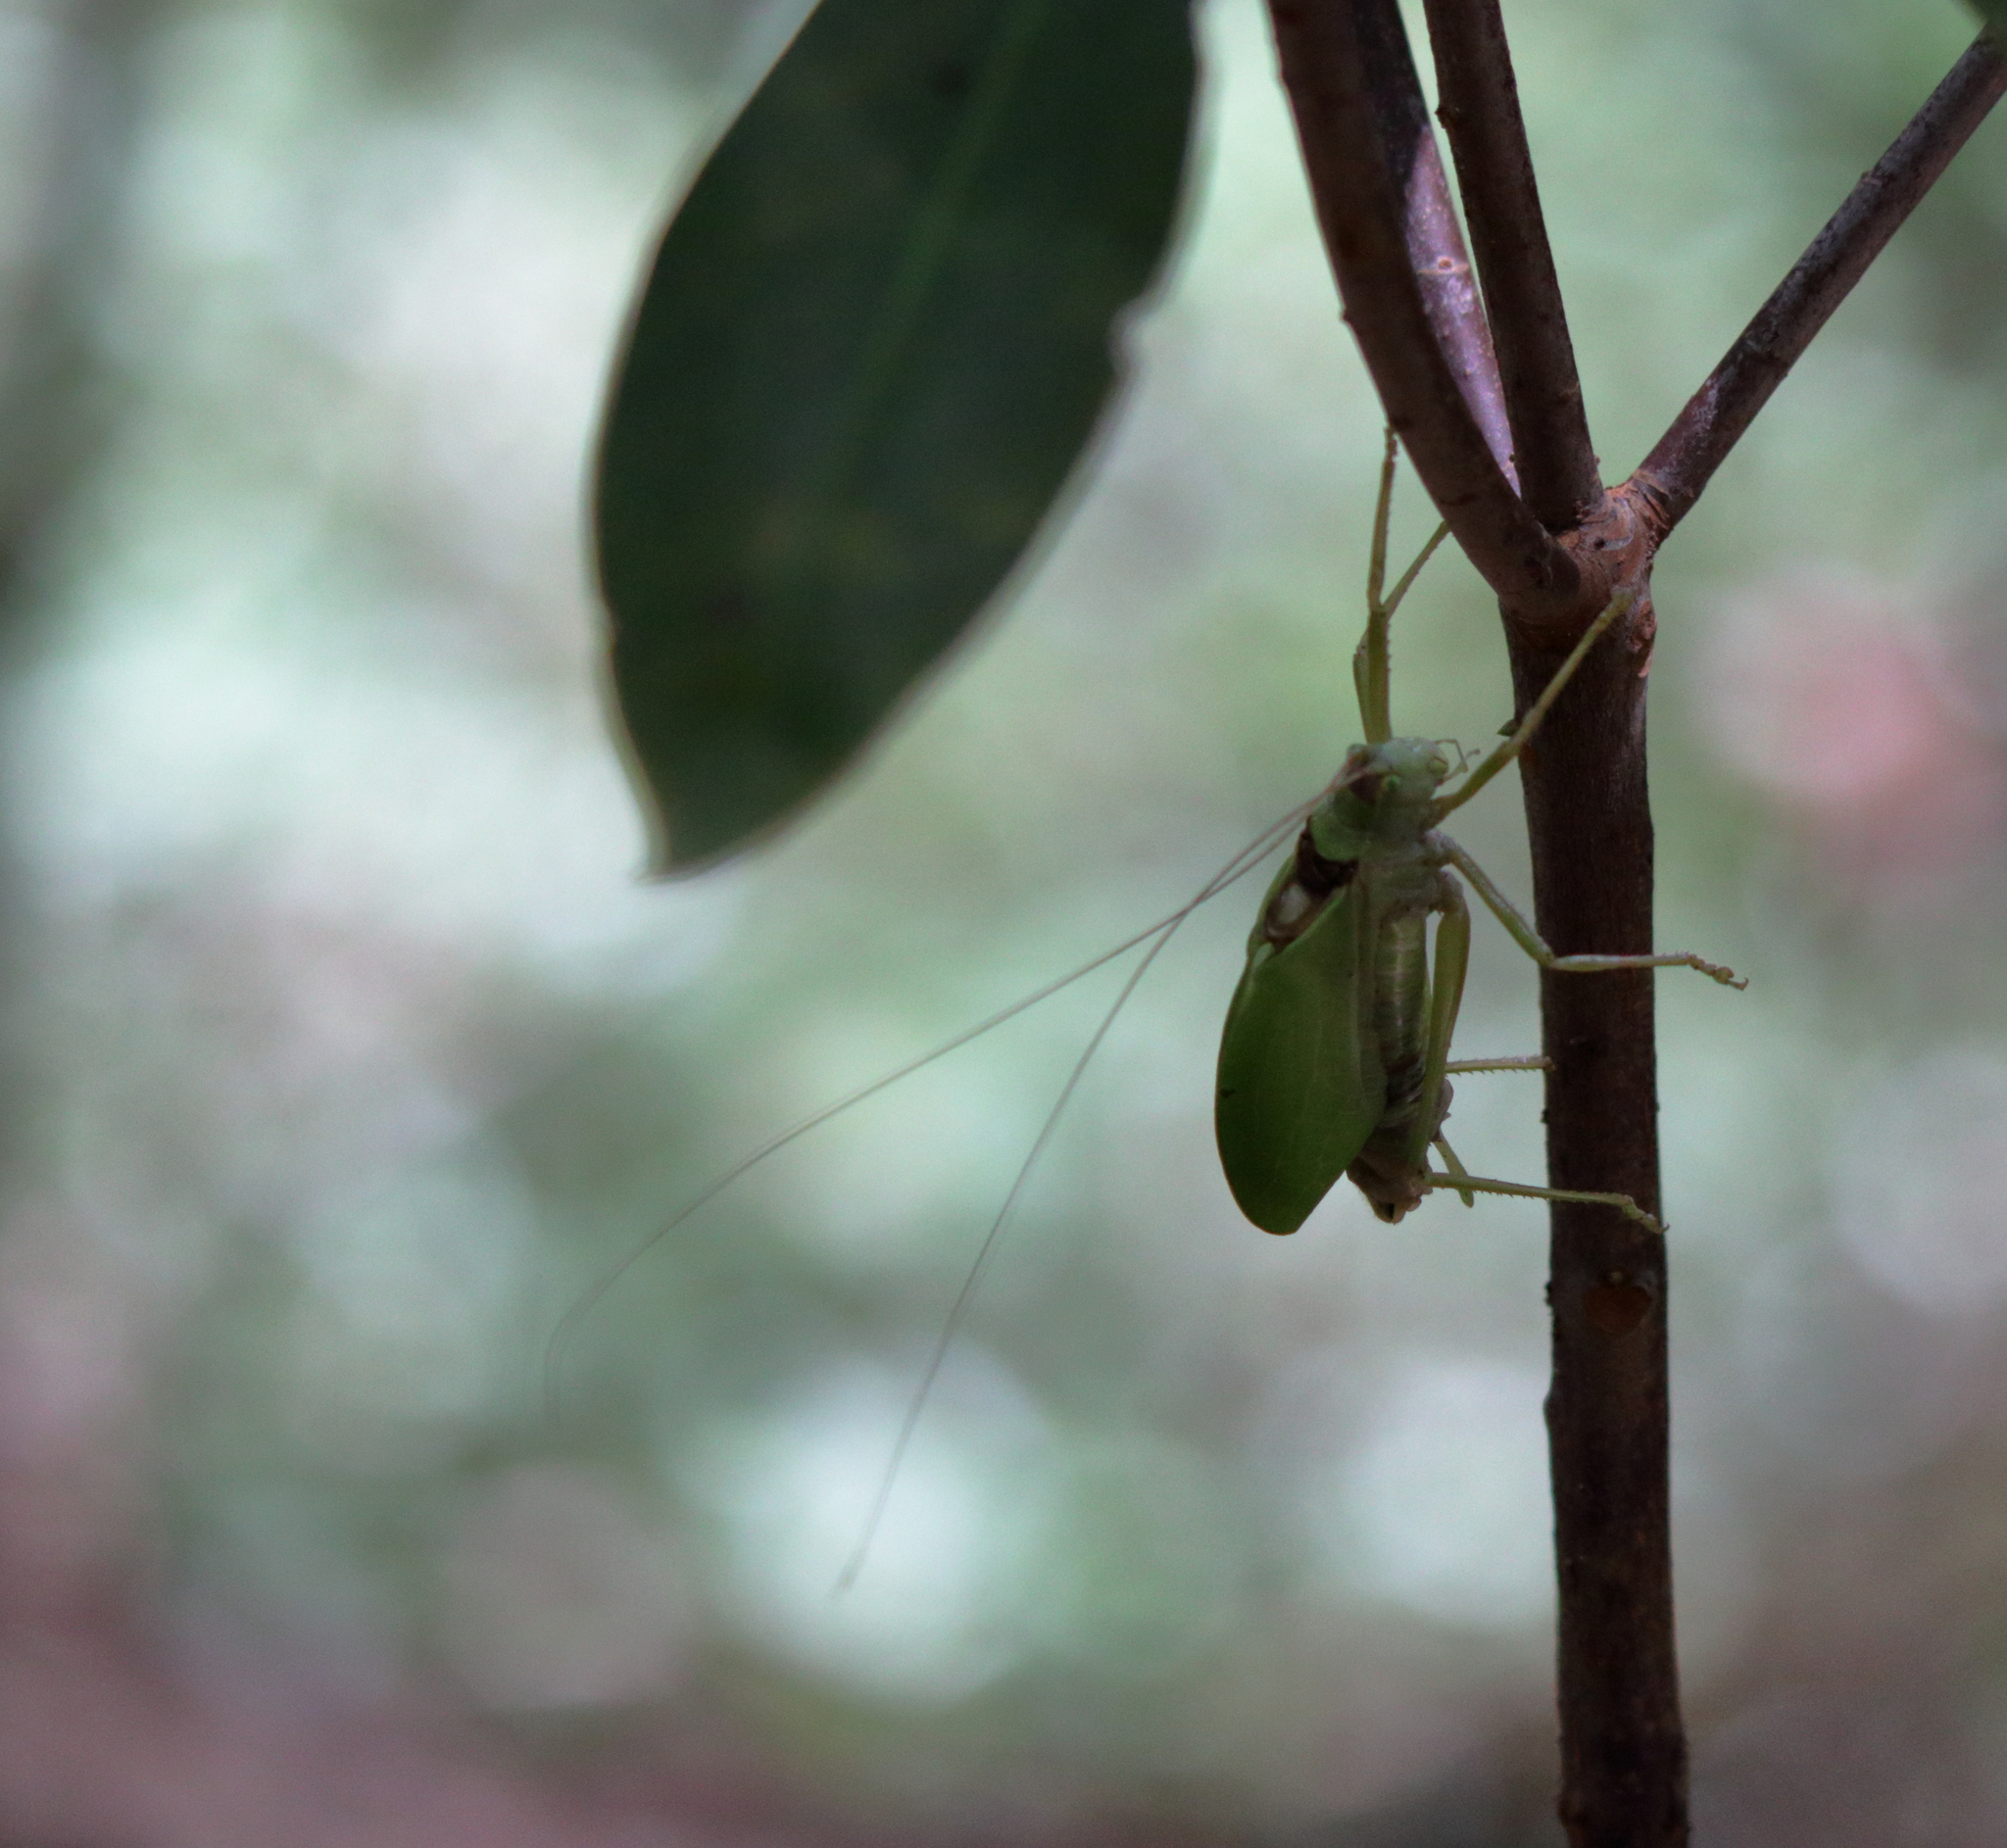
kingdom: Animalia
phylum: Arthropoda
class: Insecta
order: Orthoptera
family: Tettigoniidae
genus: Pterophylla
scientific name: Pterophylla camellifolia
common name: Common true katydid
